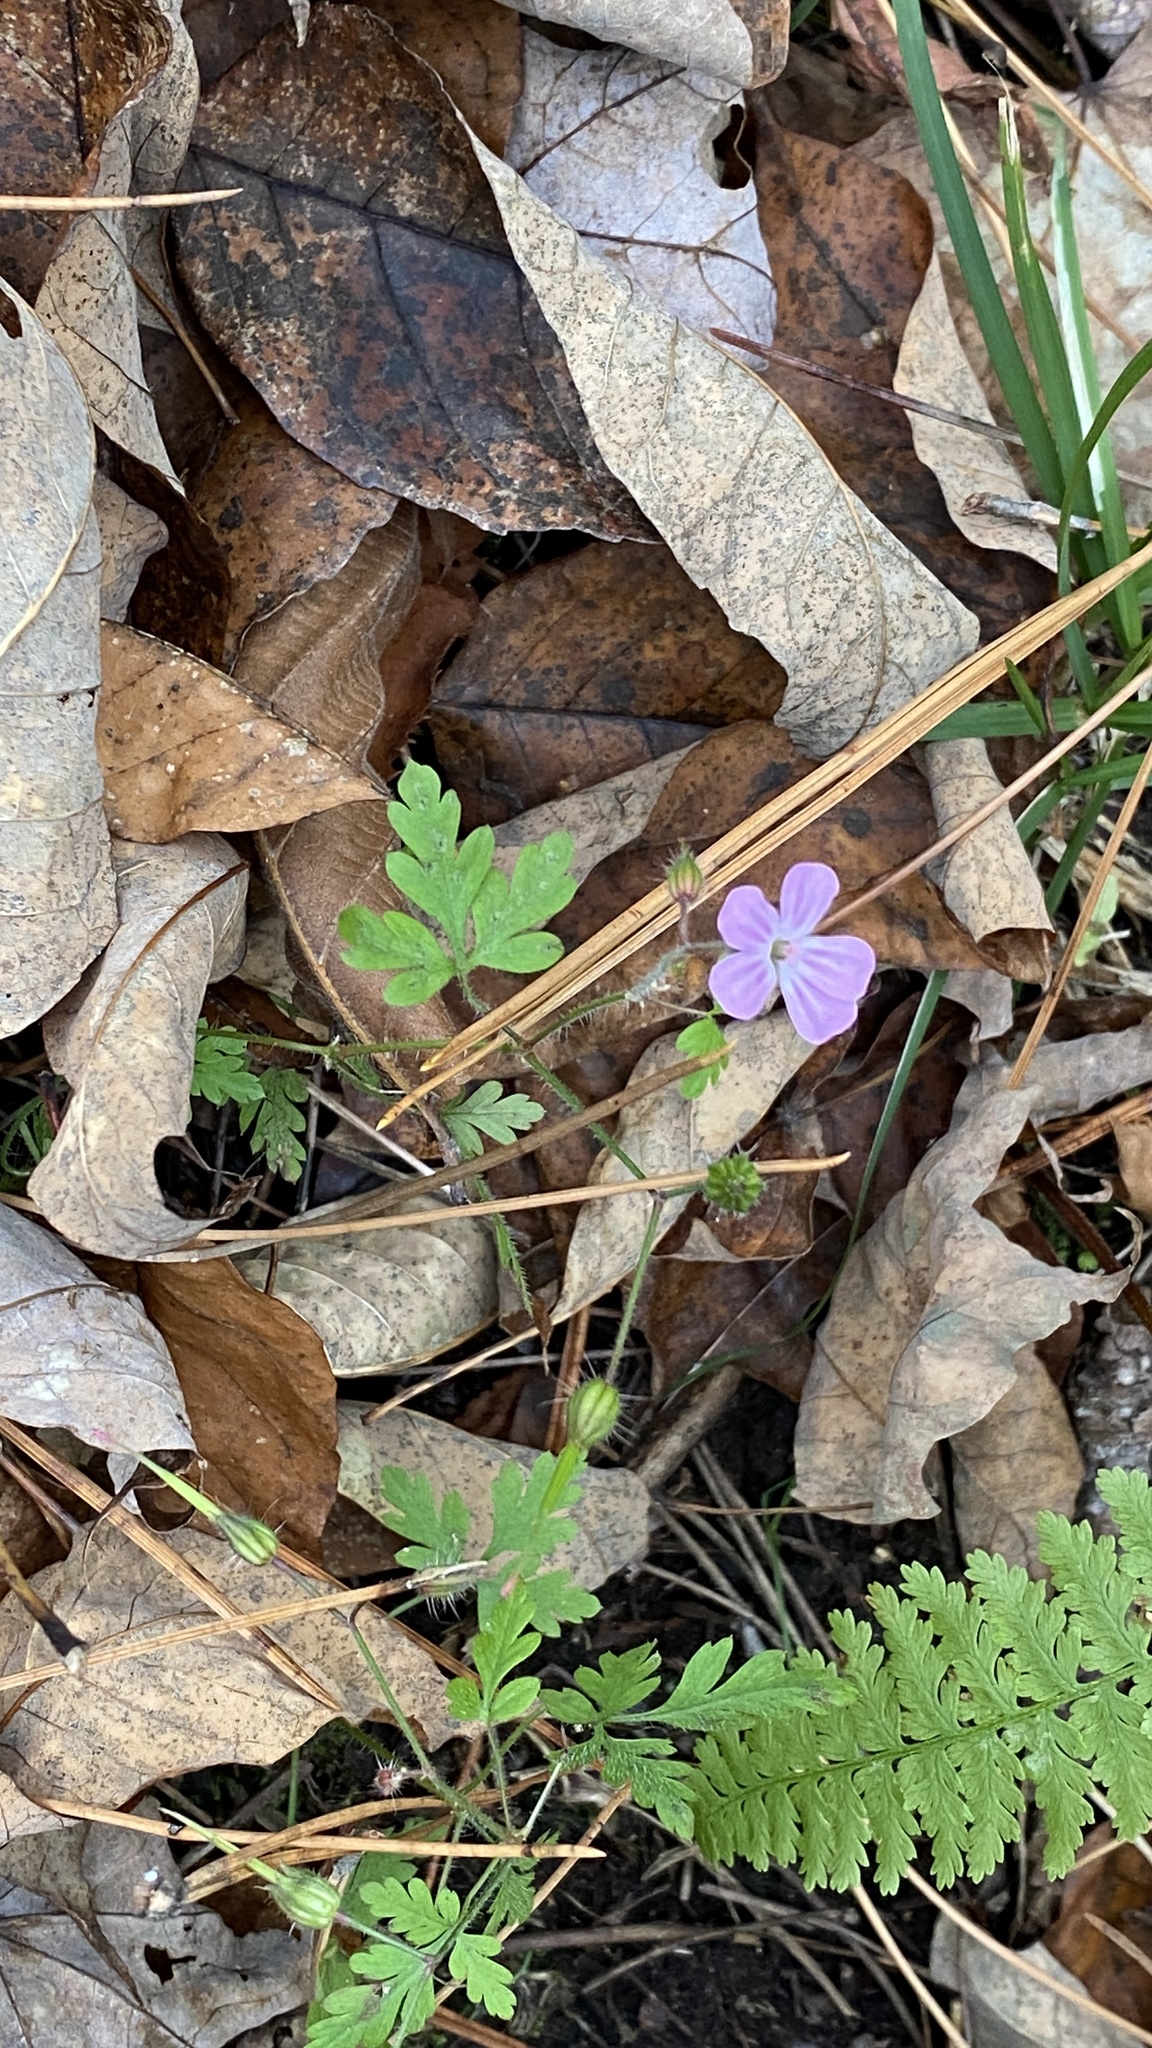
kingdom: Plantae
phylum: Tracheophyta
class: Magnoliopsida
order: Geraniales
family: Geraniaceae
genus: Geranium
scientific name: Geranium robertianum
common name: Herb-robert
